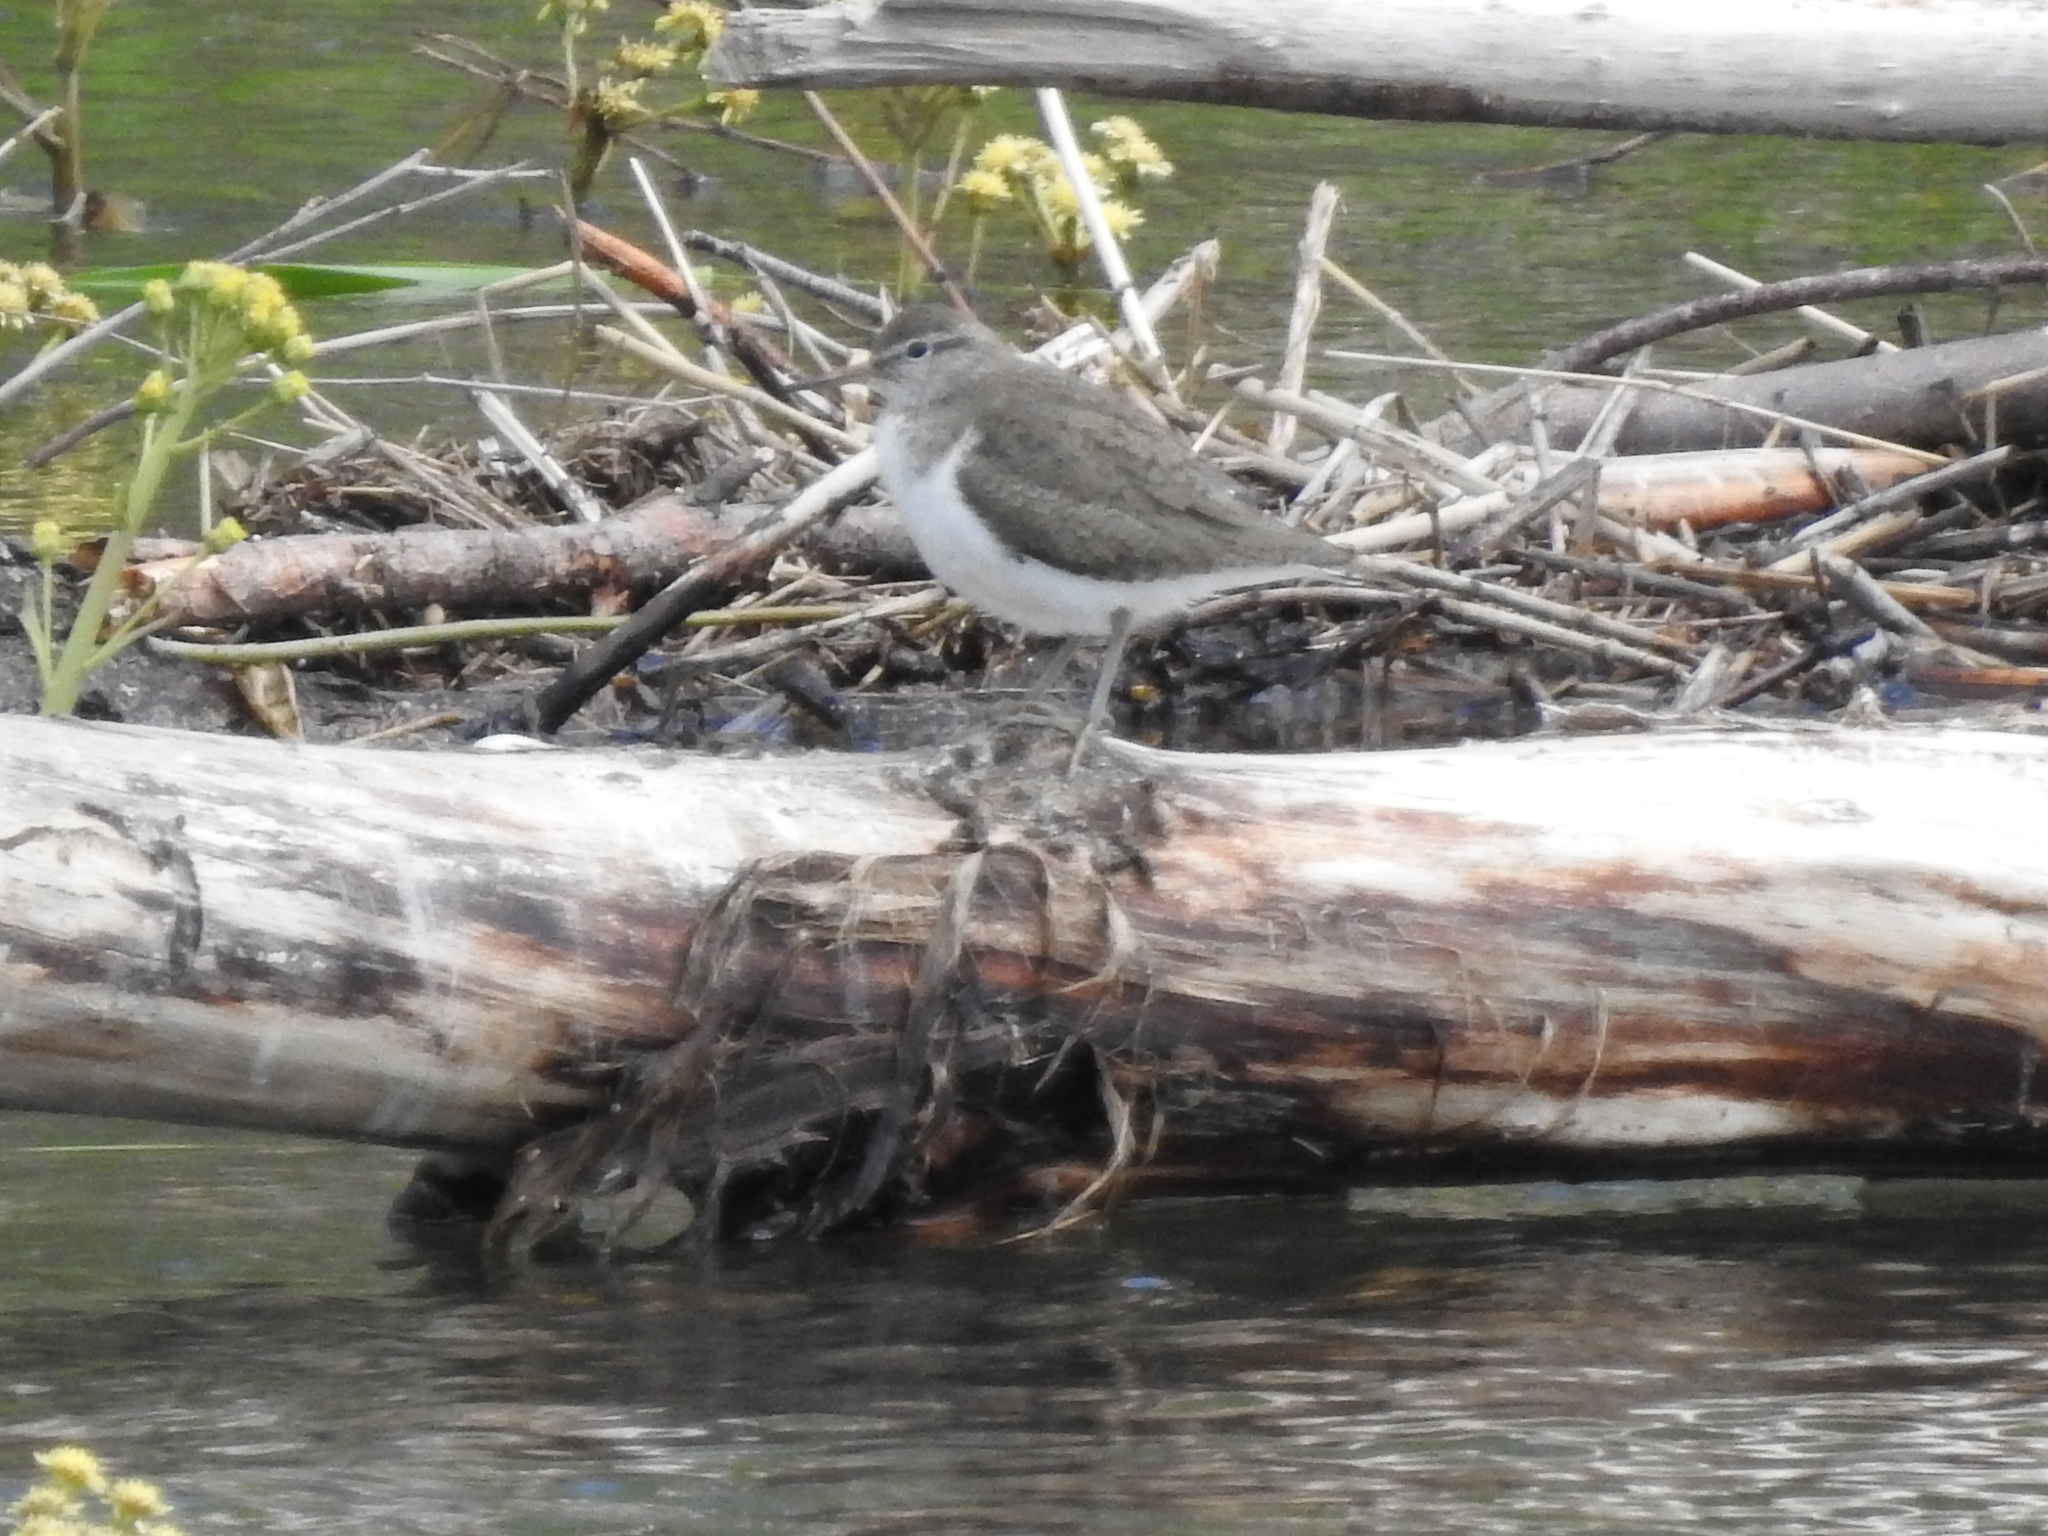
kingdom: Animalia
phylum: Chordata
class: Aves
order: Charadriiformes
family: Scolopacidae
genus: Actitis
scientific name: Actitis hypoleucos
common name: Common sandpiper
